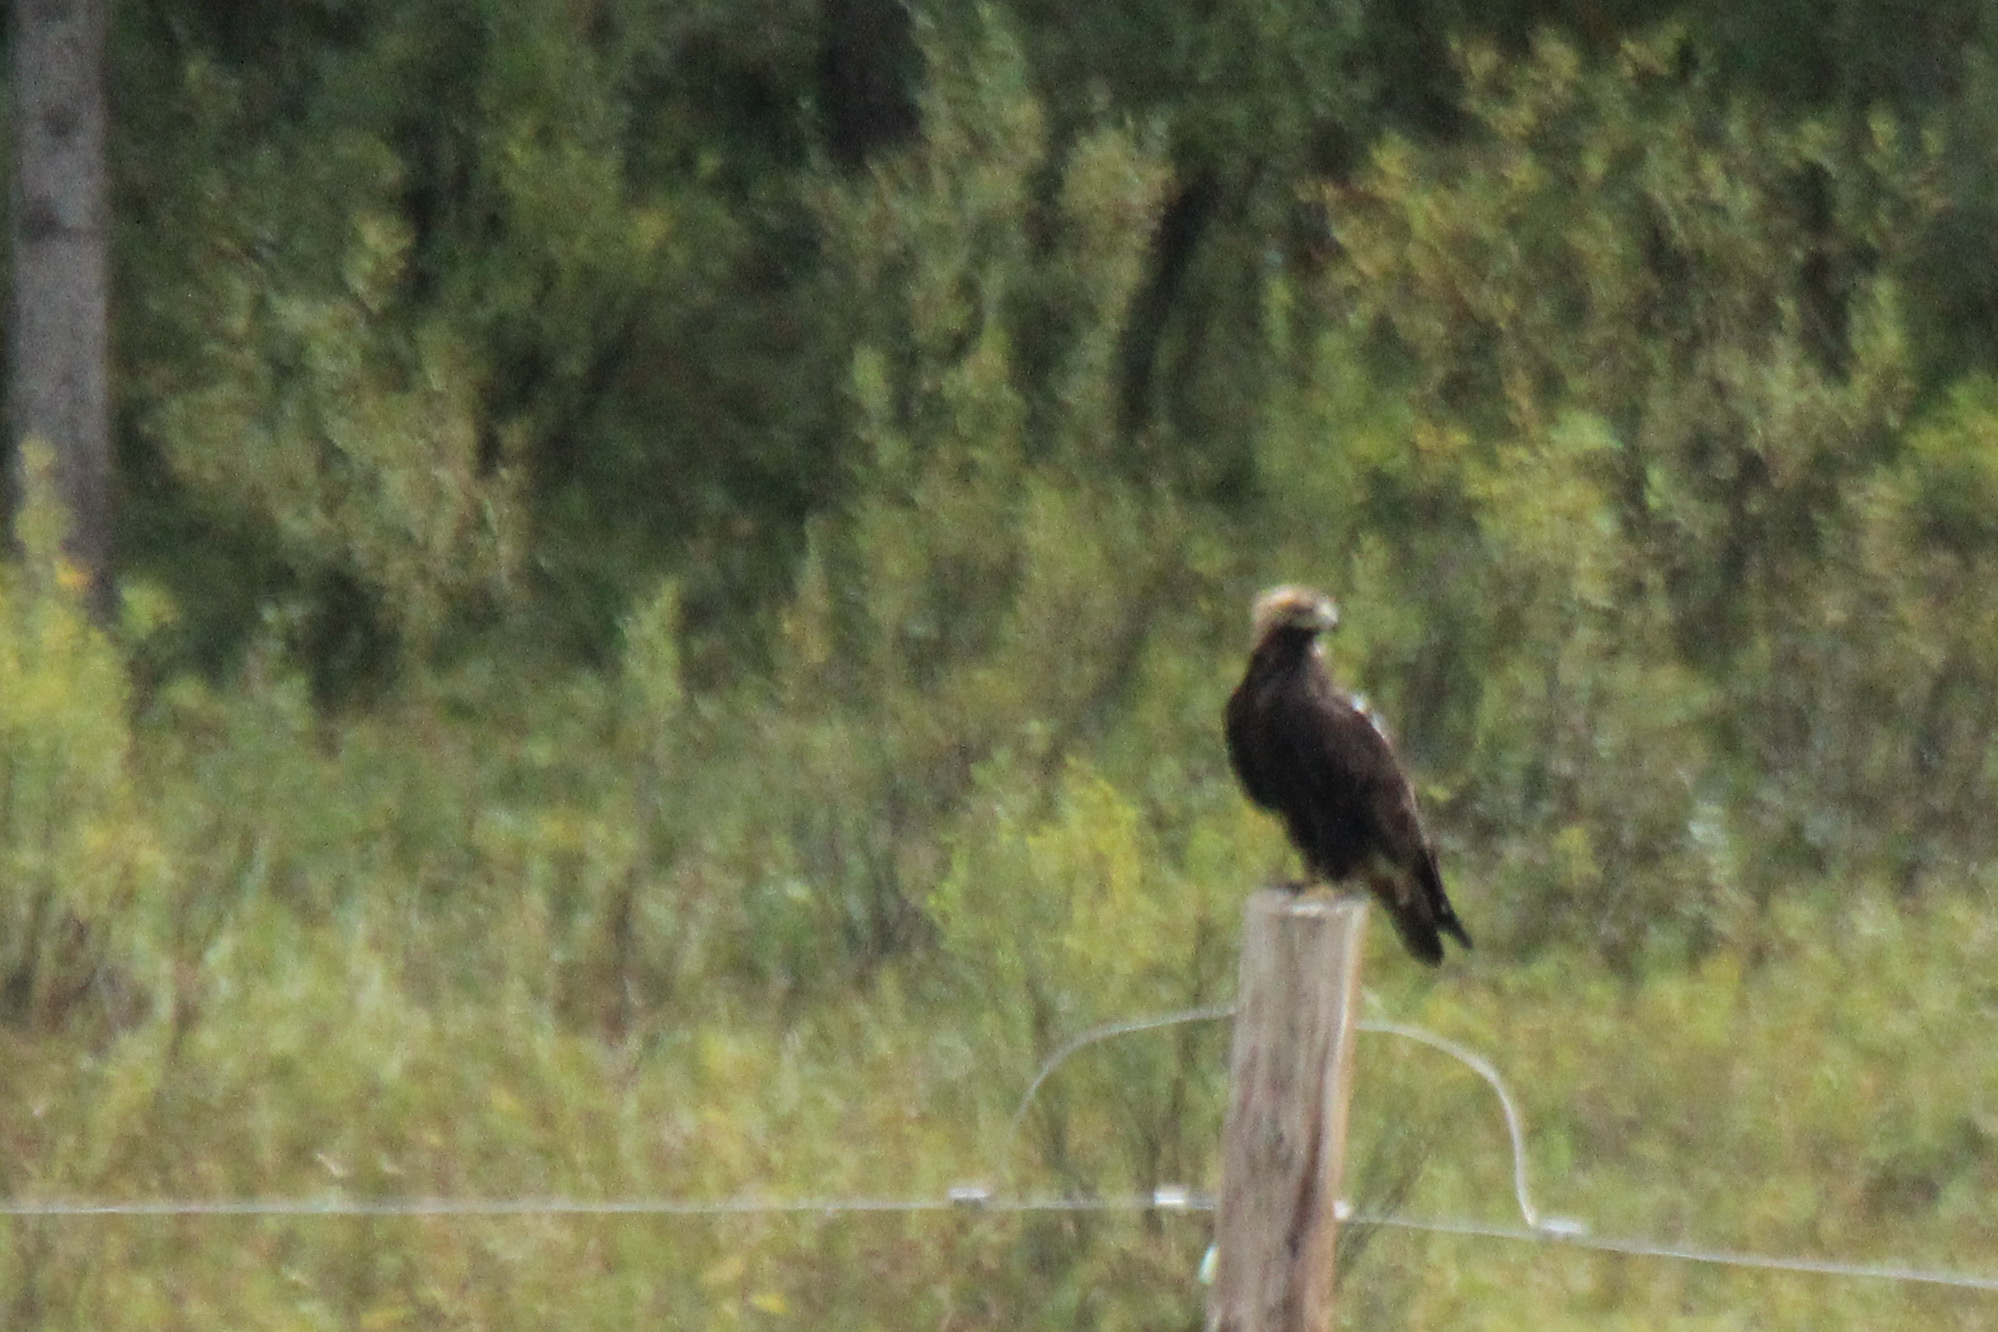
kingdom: Animalia
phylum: Chordata
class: Aves
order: Accipitriformes
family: Accipitridae
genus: Aquila
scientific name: Aquila heliaca
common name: Eastern imperial eagle
